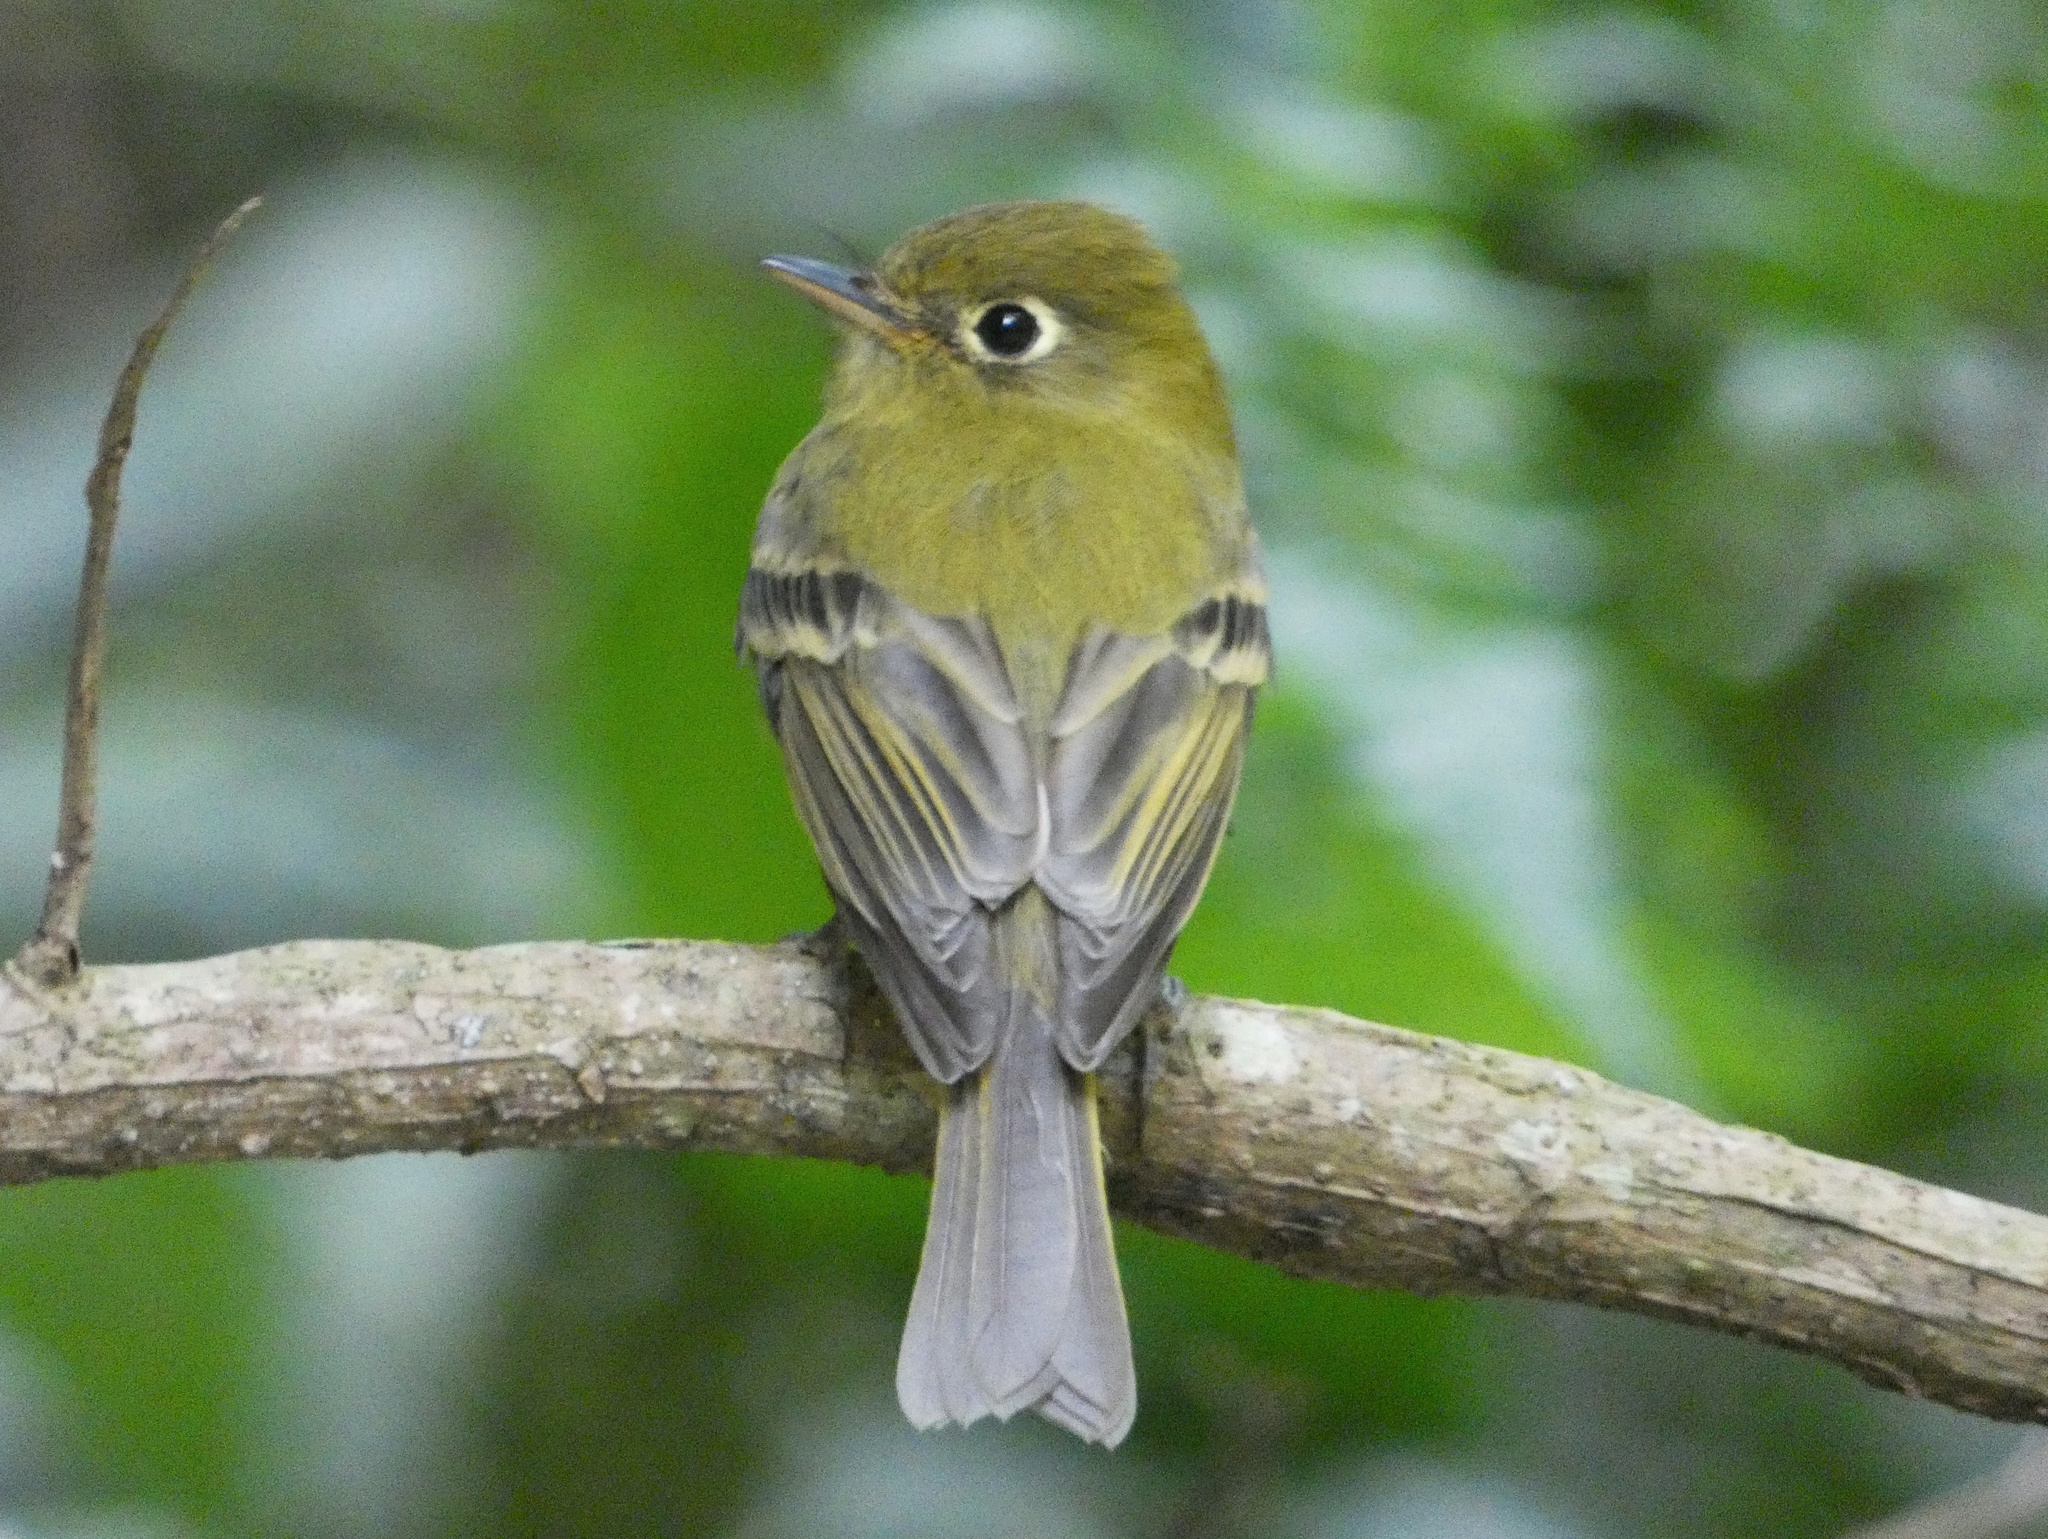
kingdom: Animalia
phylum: Chordata
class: Aves
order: Passeriformes
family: Tyrannidae
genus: Empidonax
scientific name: Empidonax flavescens
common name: Yellowish flycatcher
